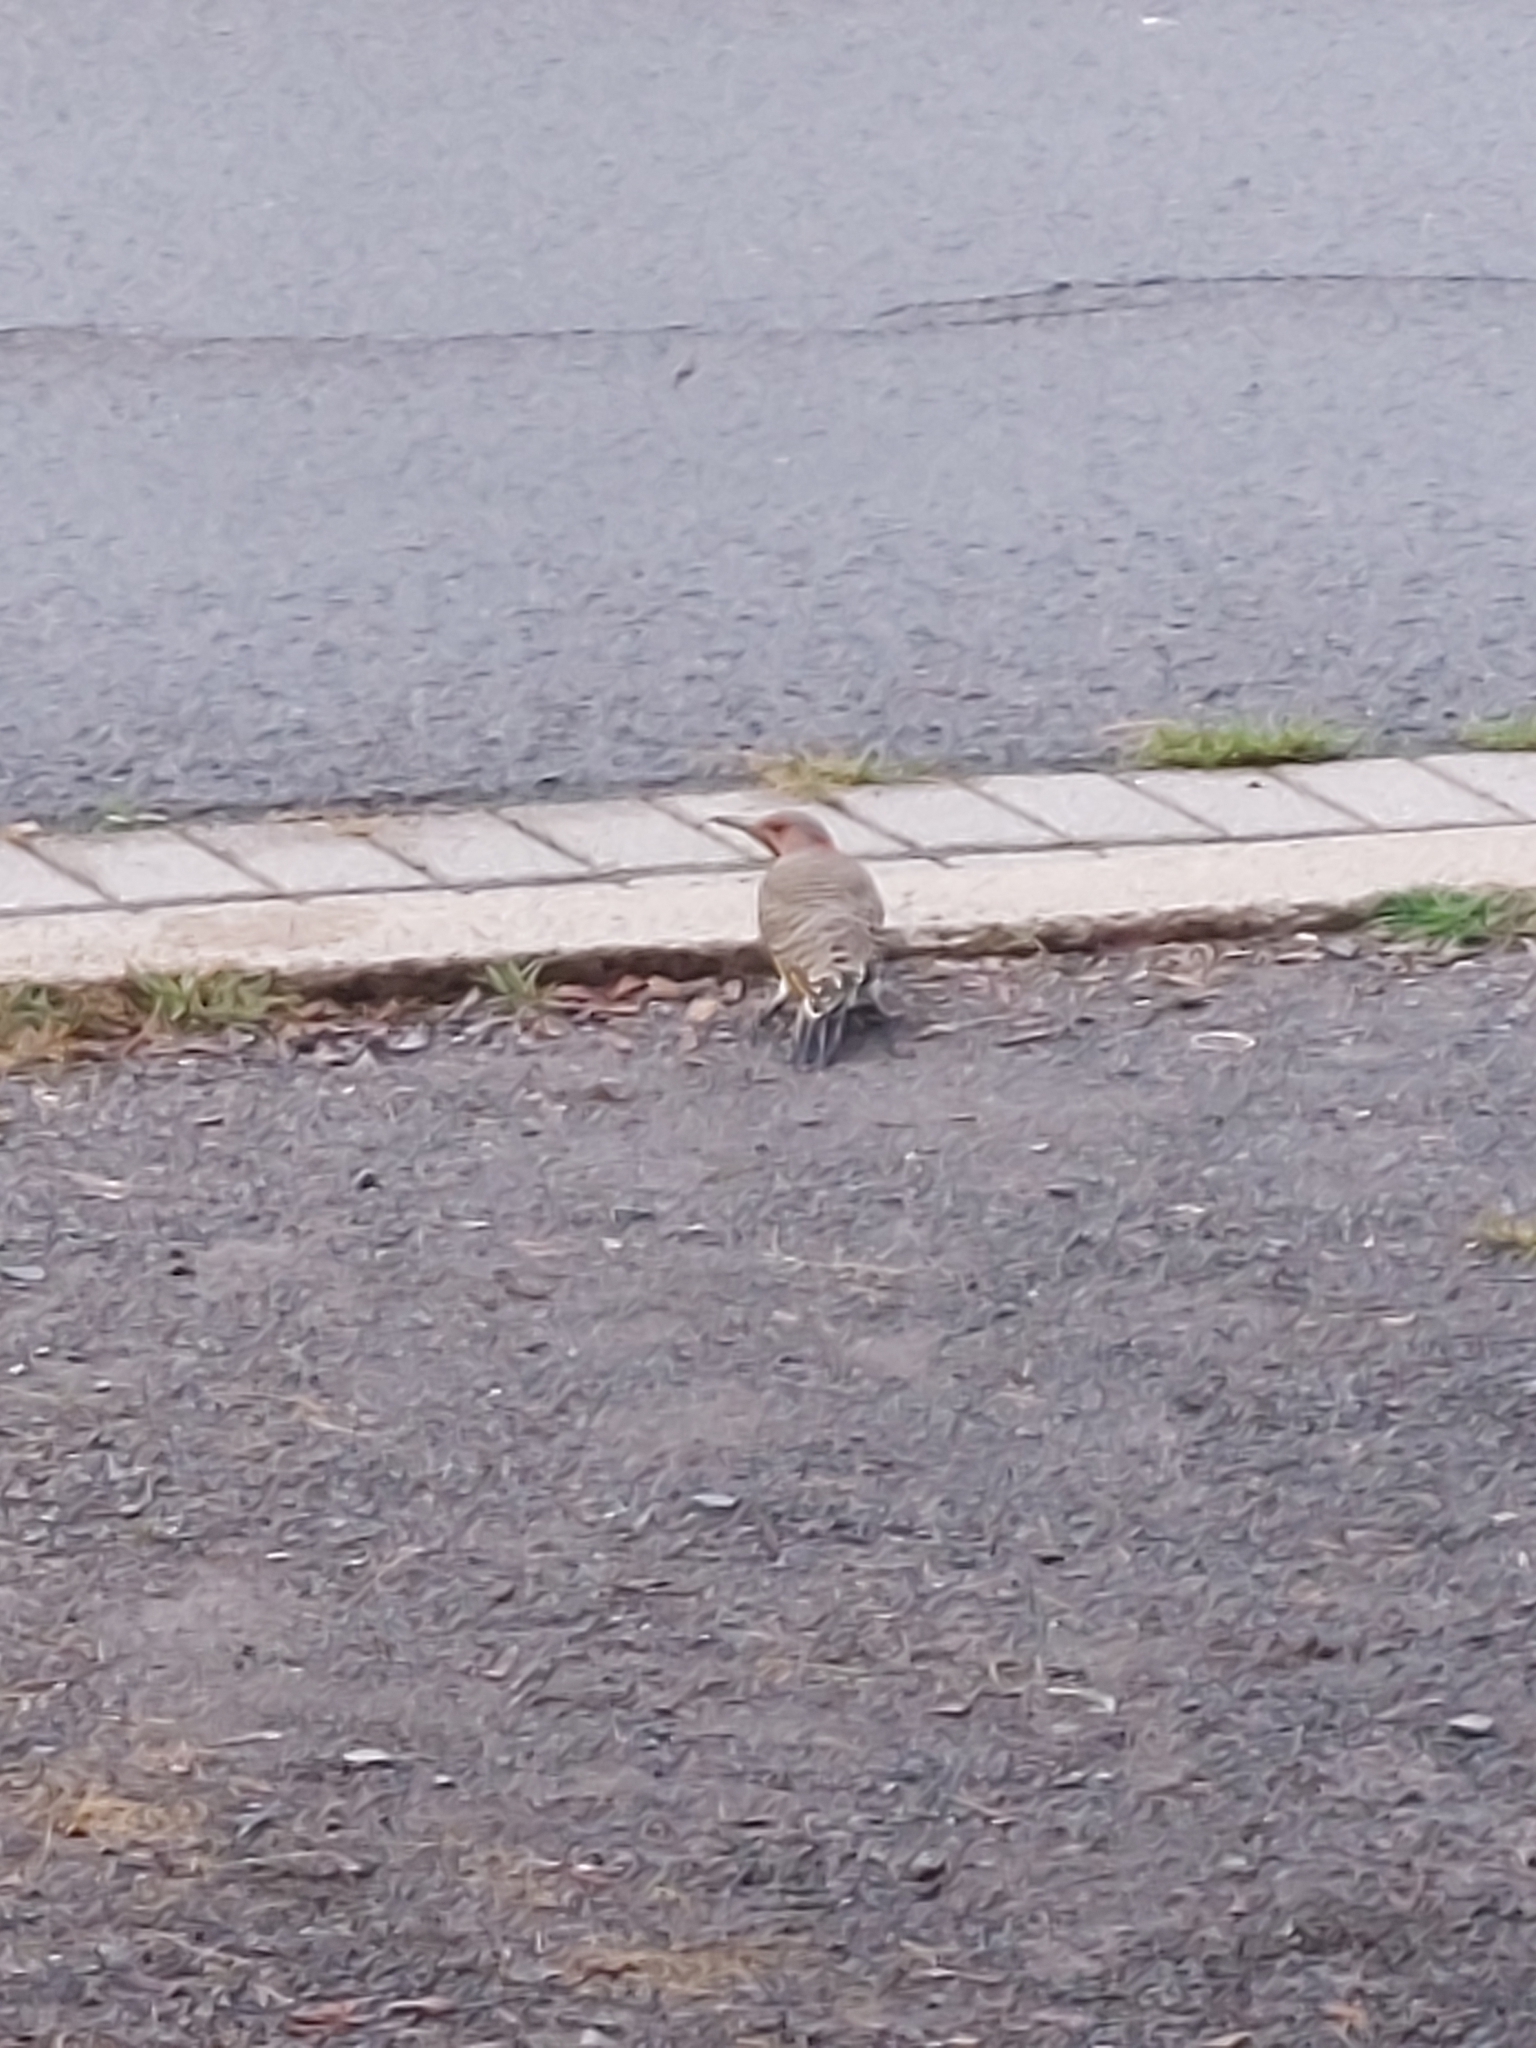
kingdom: Animalia
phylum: Chordata
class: Aves
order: Piciformes
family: Picidae
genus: Colaptes
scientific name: Colaptes auratus
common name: Northern flicker
